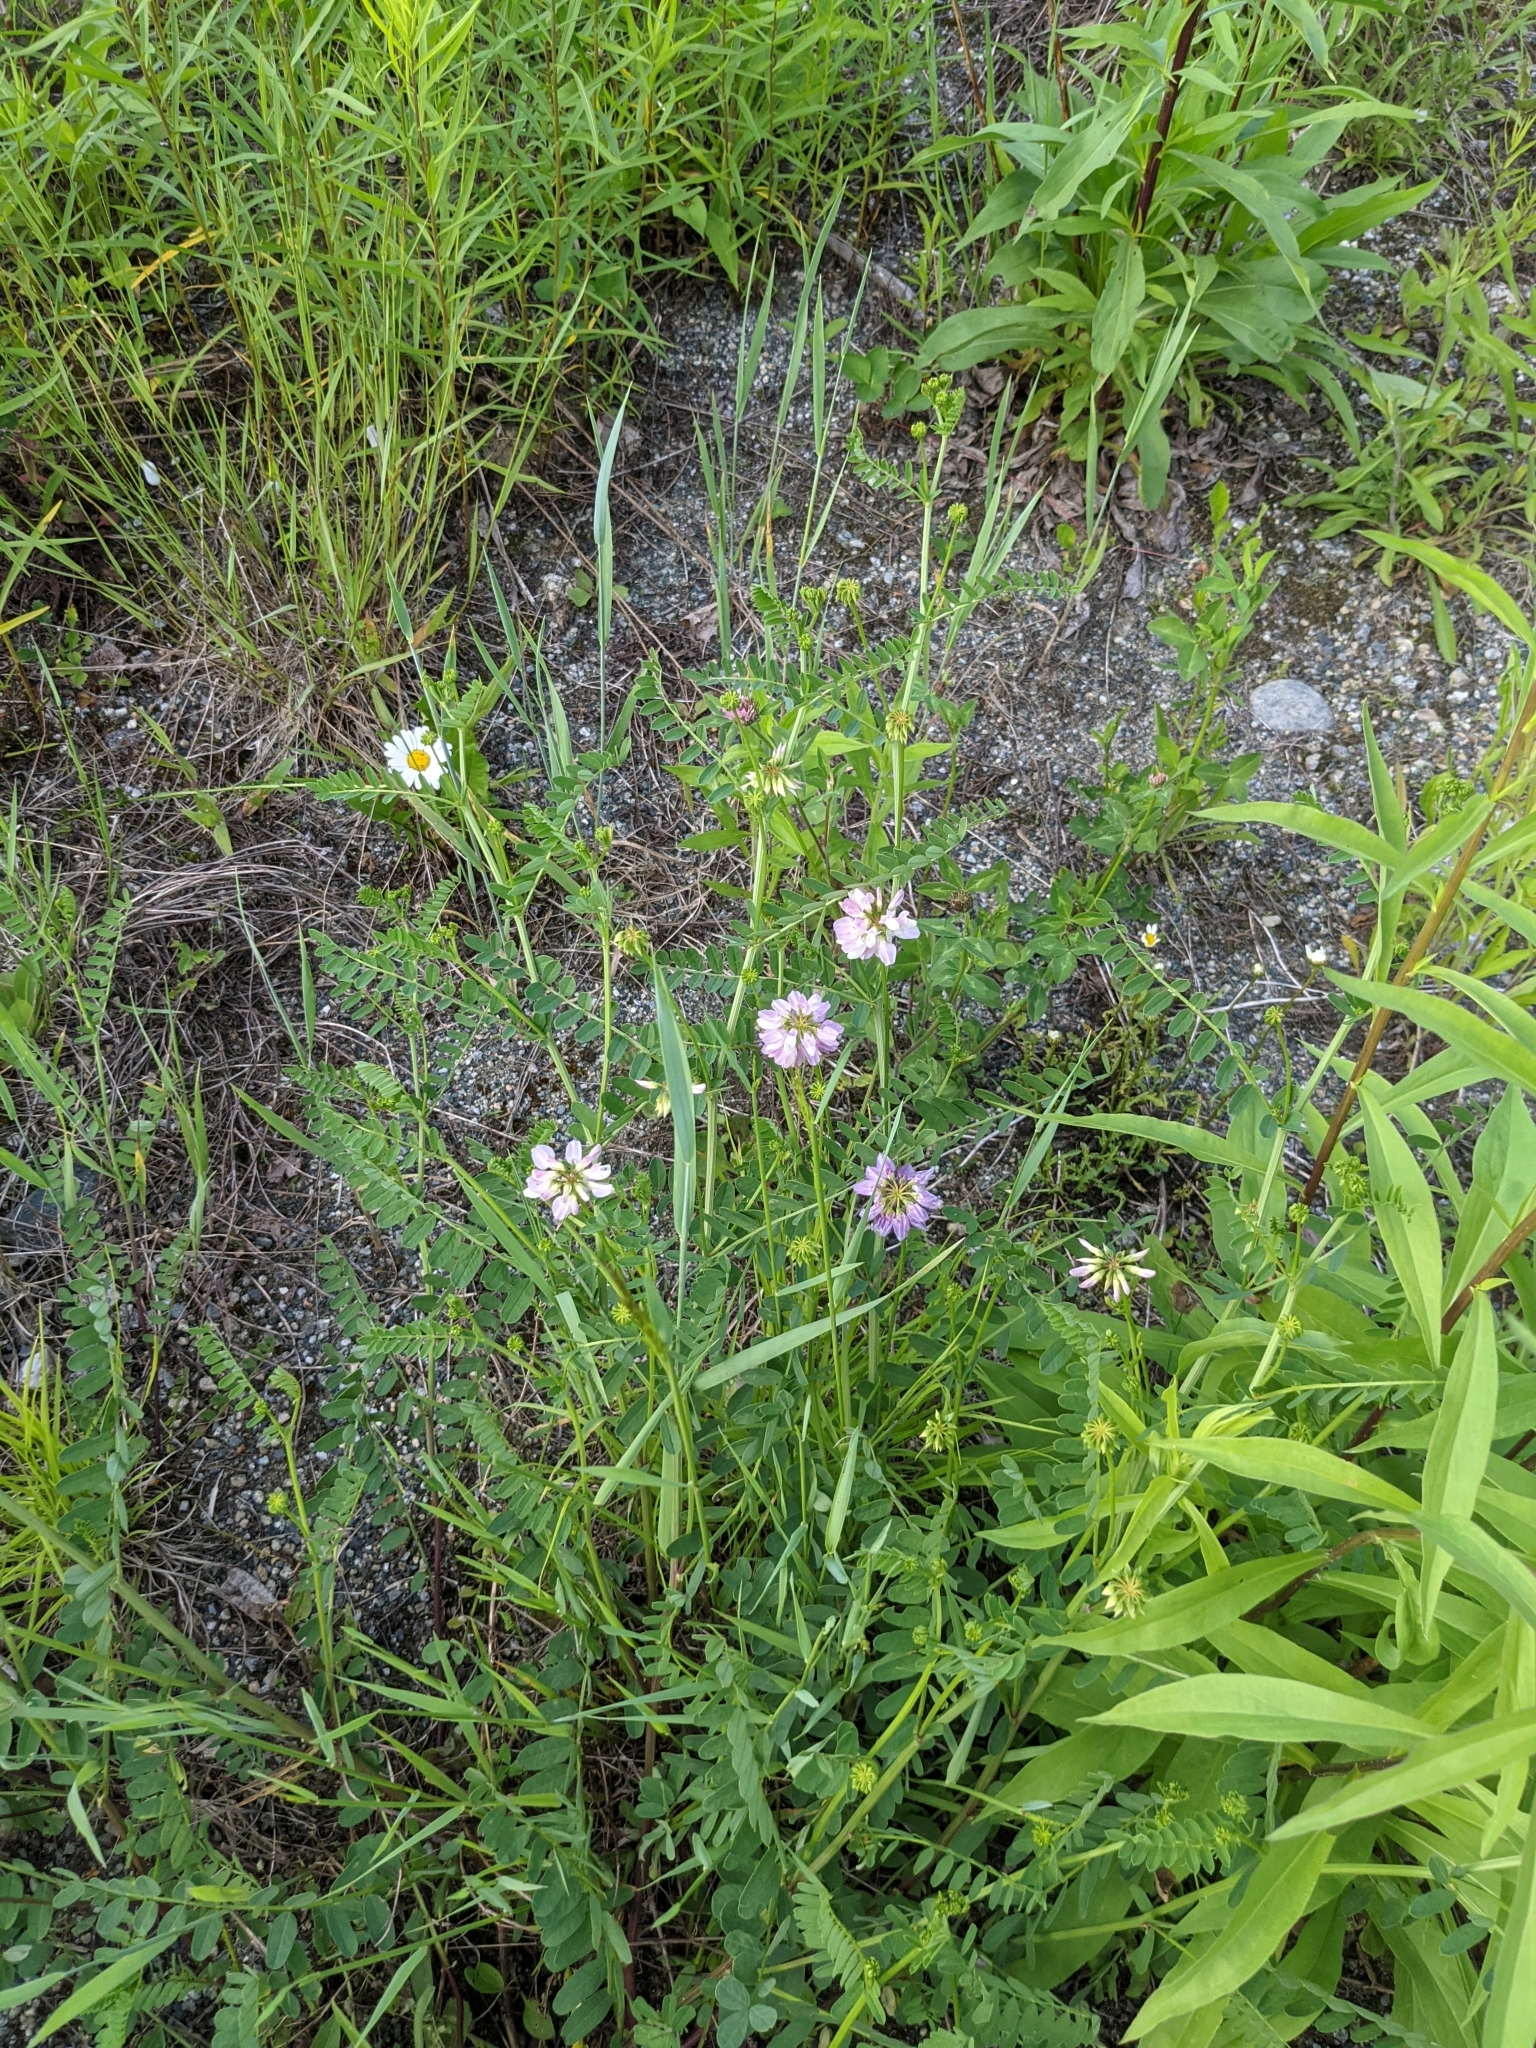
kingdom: Plantae
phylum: Tracheophyta
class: Magnoliopsida
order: Fabales
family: Fabaceae
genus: Coronilla
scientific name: Coronilla varia
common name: Crownvetch
